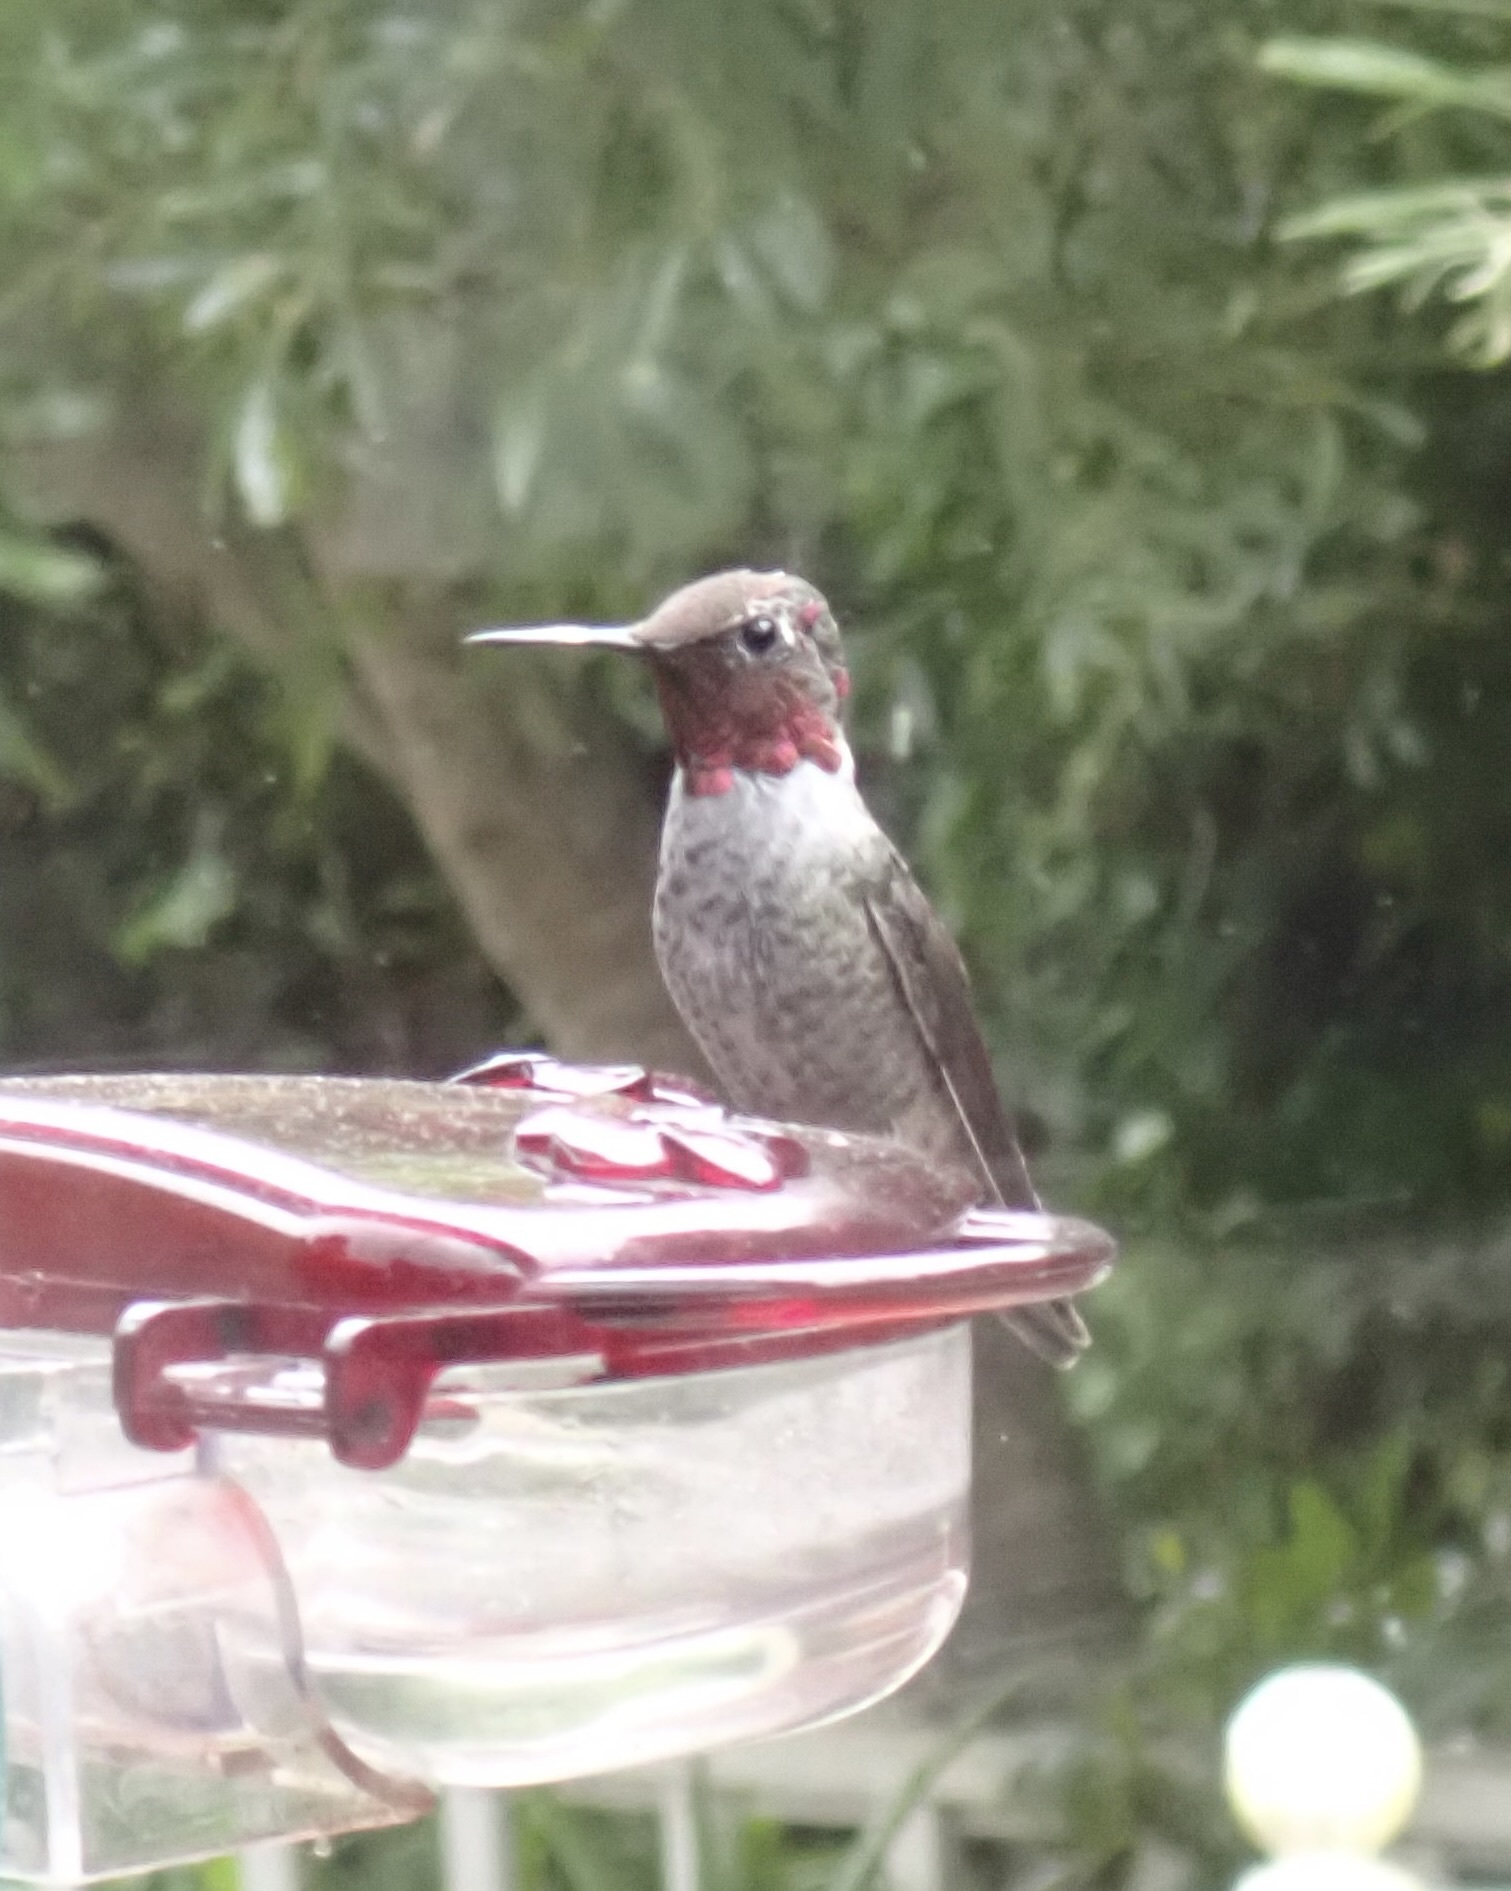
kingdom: Animalia
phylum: Chordata
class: Aves
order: Apodiformes
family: Trochilidae
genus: Calypte
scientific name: Calypte anna
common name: Anna's hummingbird
